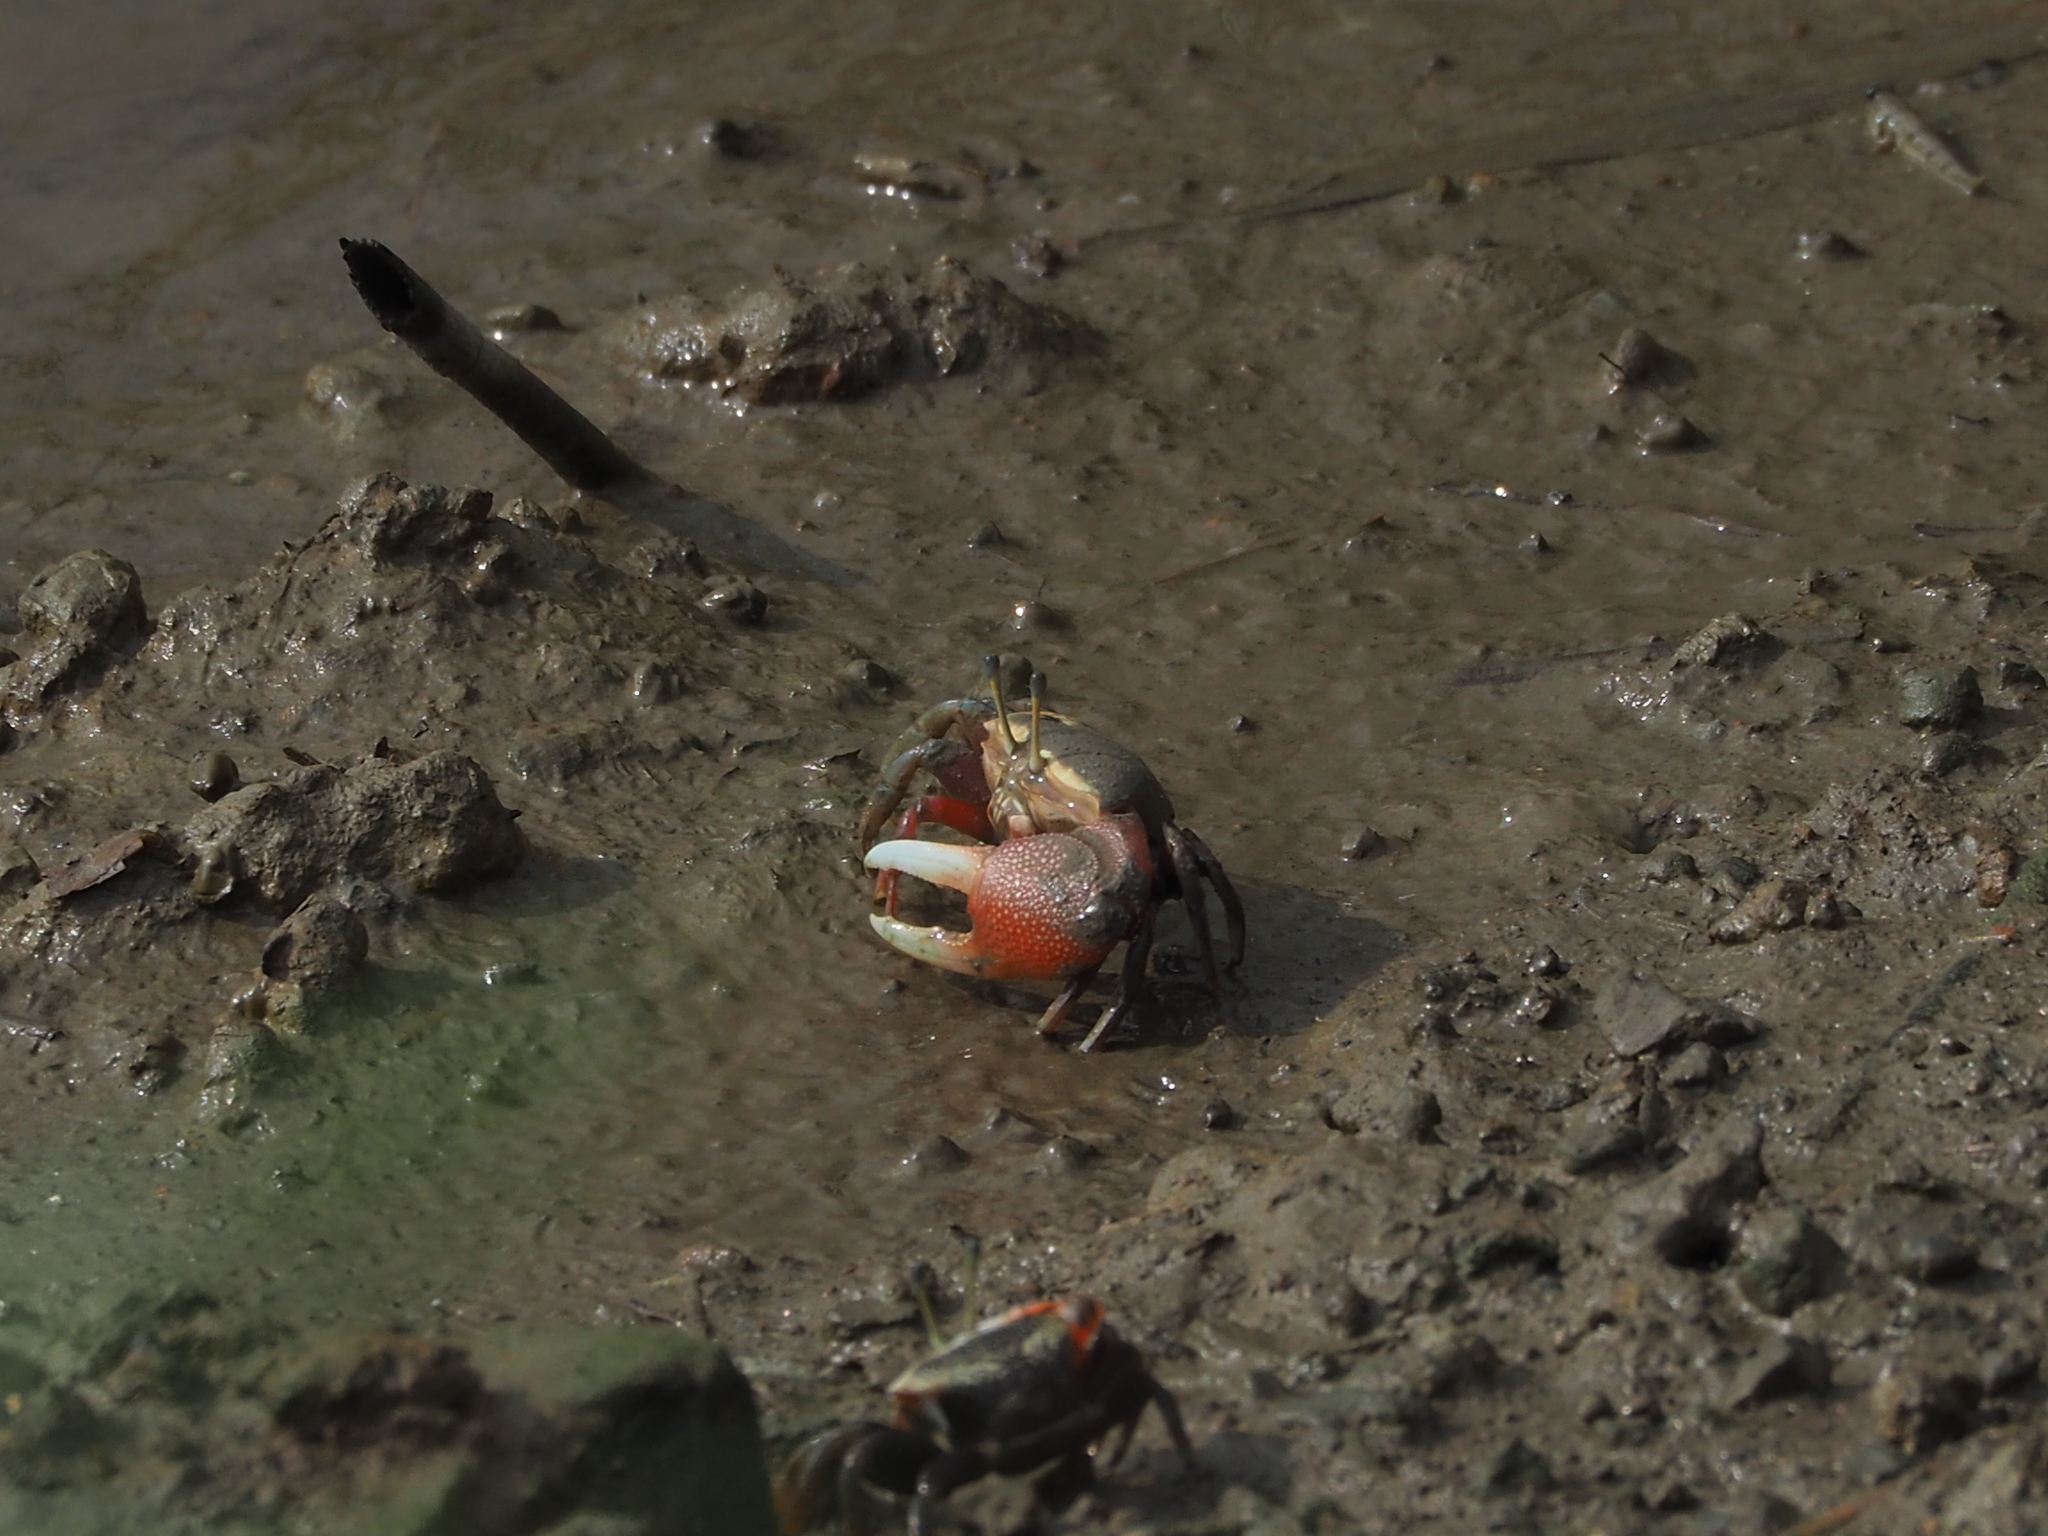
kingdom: Animalia
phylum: Arthropoda
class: Malacostraca
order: Decapoda
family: Ocypodidae
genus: Tubuca
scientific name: Tubuca arcuata
